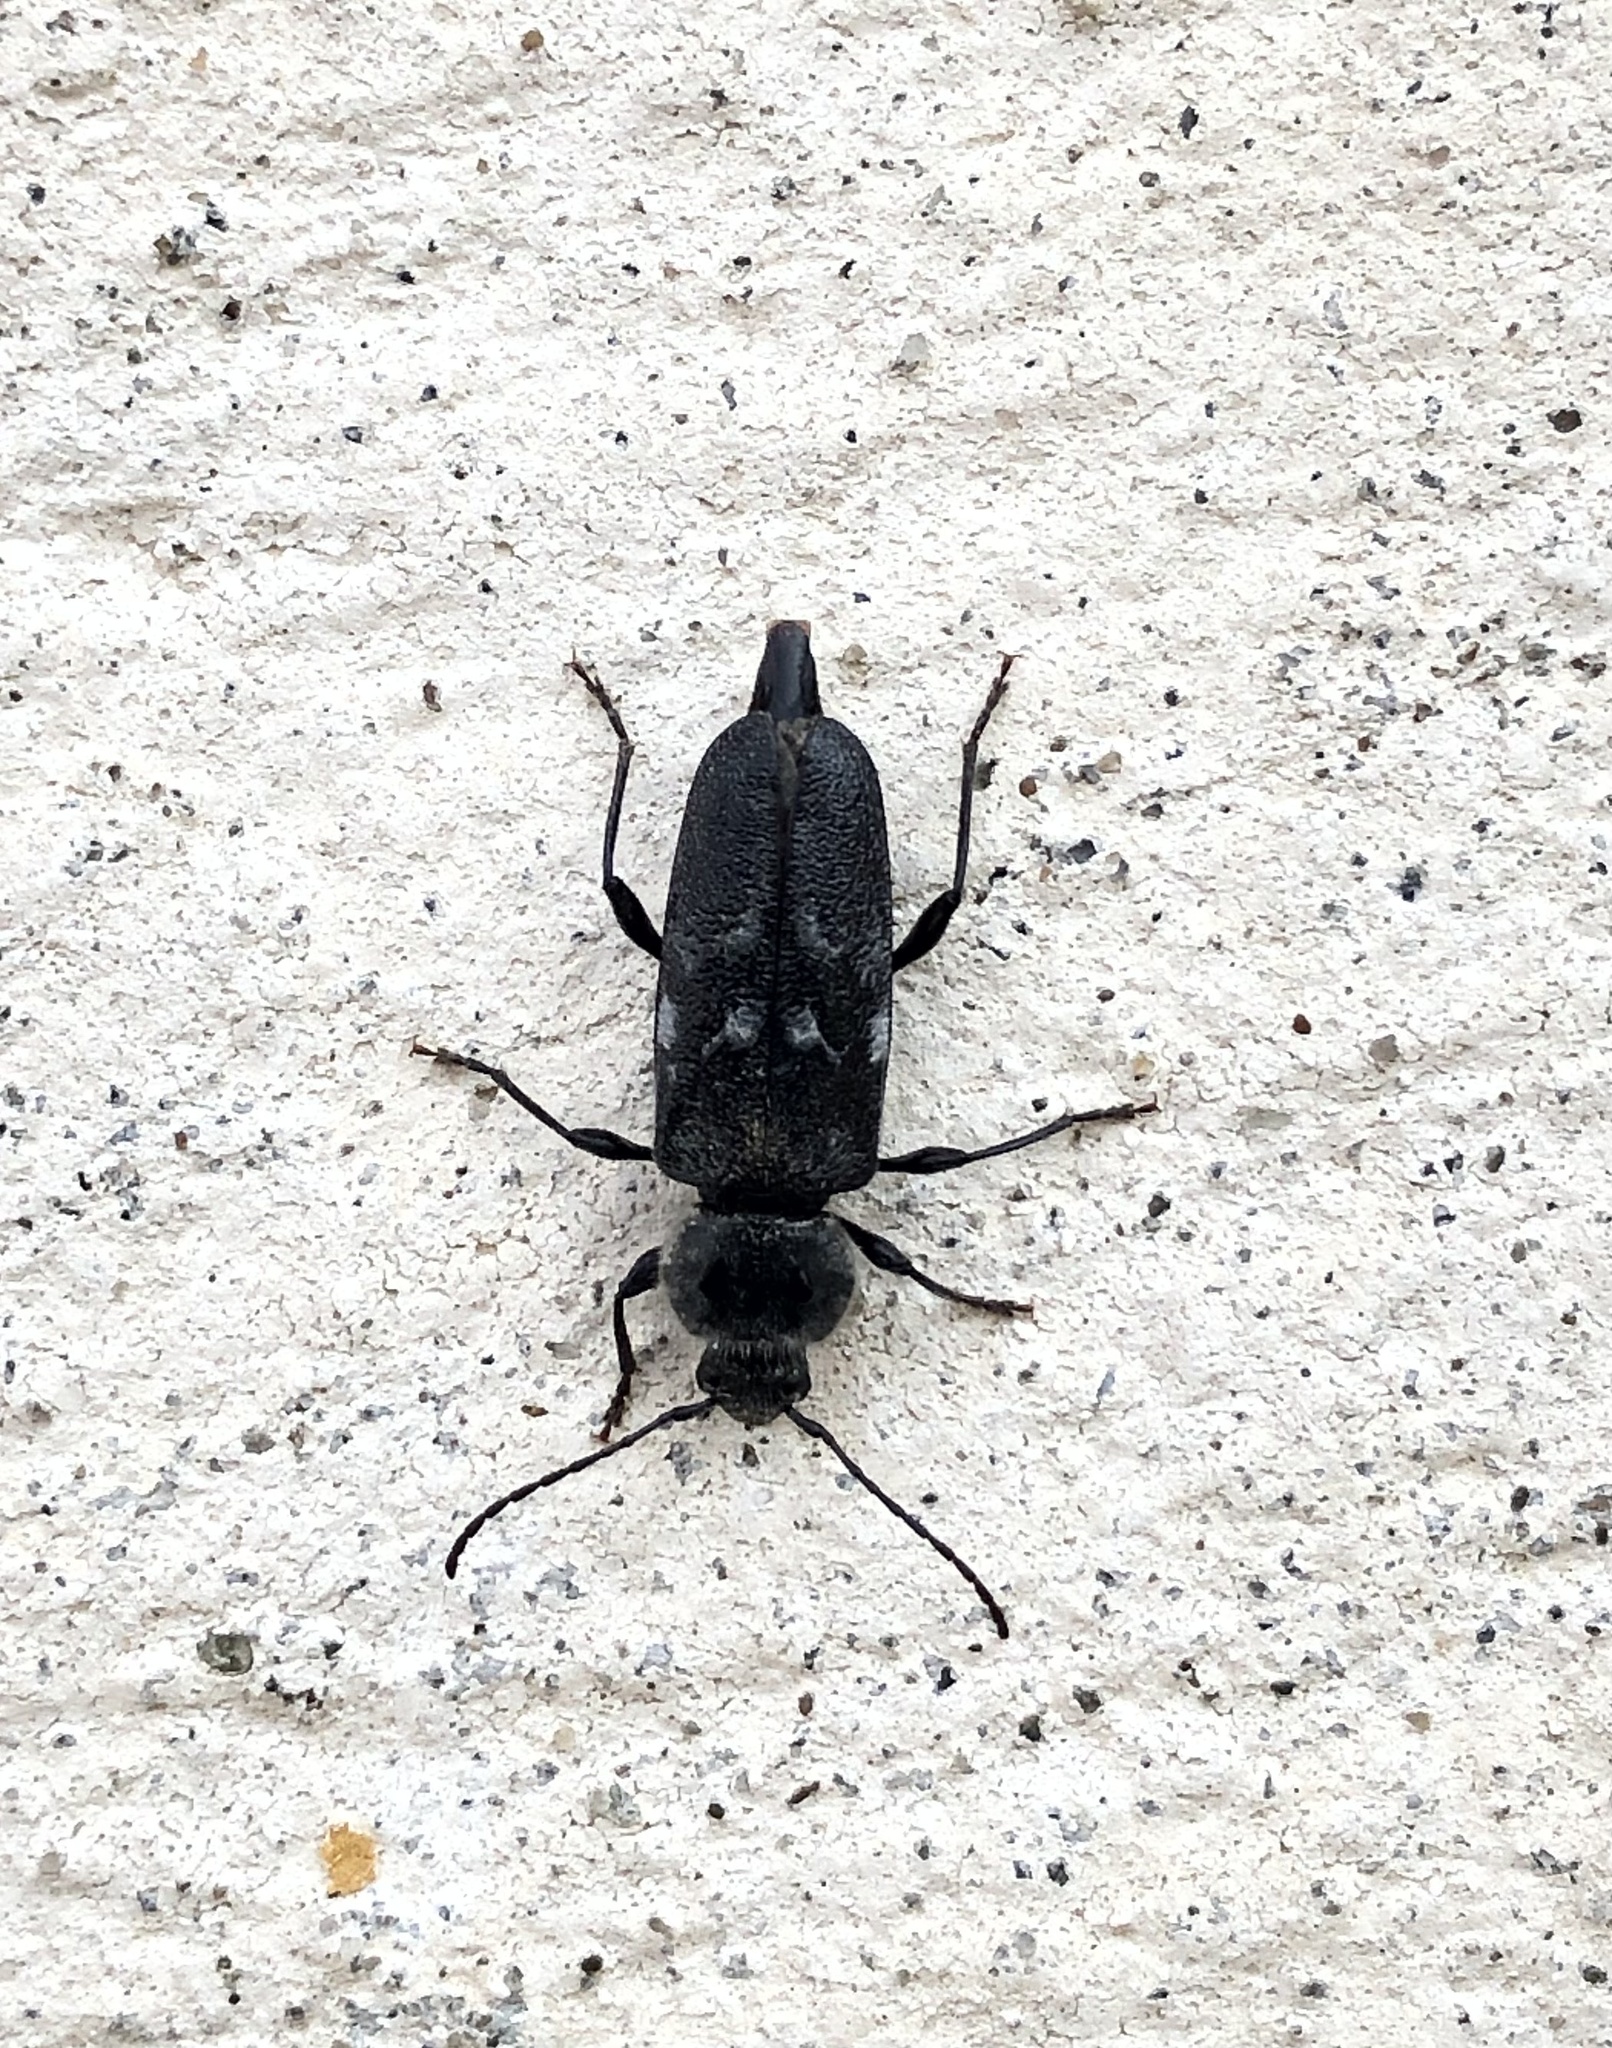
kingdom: Animalia
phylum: Arthropoda
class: Insecta
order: Coleoptera
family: Cerambycidae
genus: Hylotrupes
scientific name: Hylotrupes bajulus
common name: Old house borer
